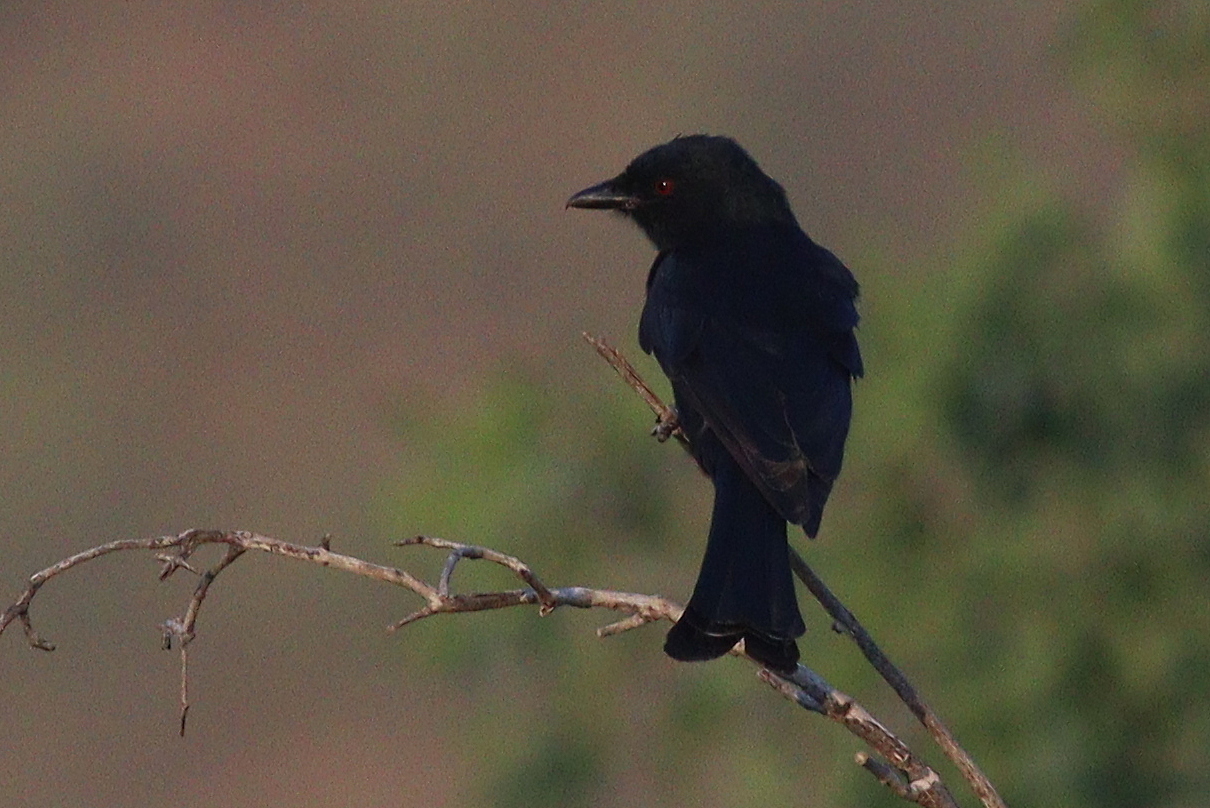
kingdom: Animalia
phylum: Chordata
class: Aves
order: Passeriformes
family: Dicruridae
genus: Dicrurus
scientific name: Dicrurus adsimilis
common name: Fork-tailed drongo
